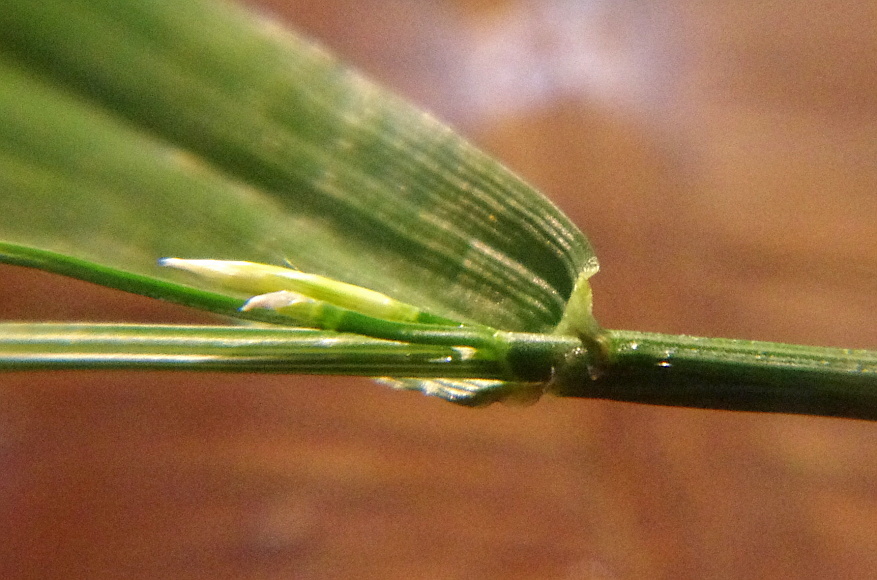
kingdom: Plantae
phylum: Tracheophyta
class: Liliopsida
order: Poales
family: Poaceae
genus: Lolium
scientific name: Lolium pratense
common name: Dover grass
